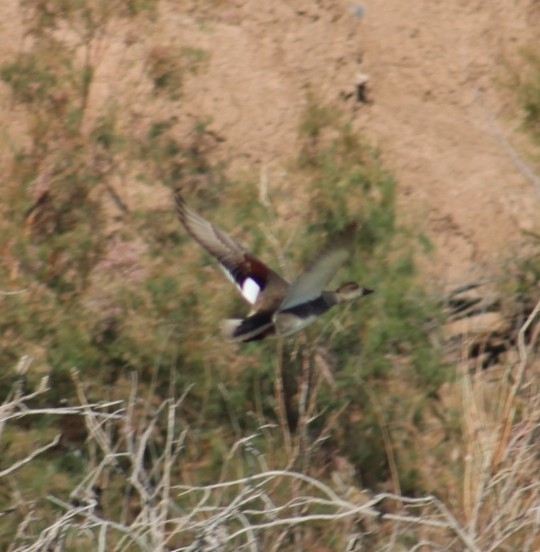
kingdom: Animalia
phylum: Chordata
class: Aves
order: Anseriformes
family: Anatidae
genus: Mareca
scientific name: Mareca strepera
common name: Gadwall
